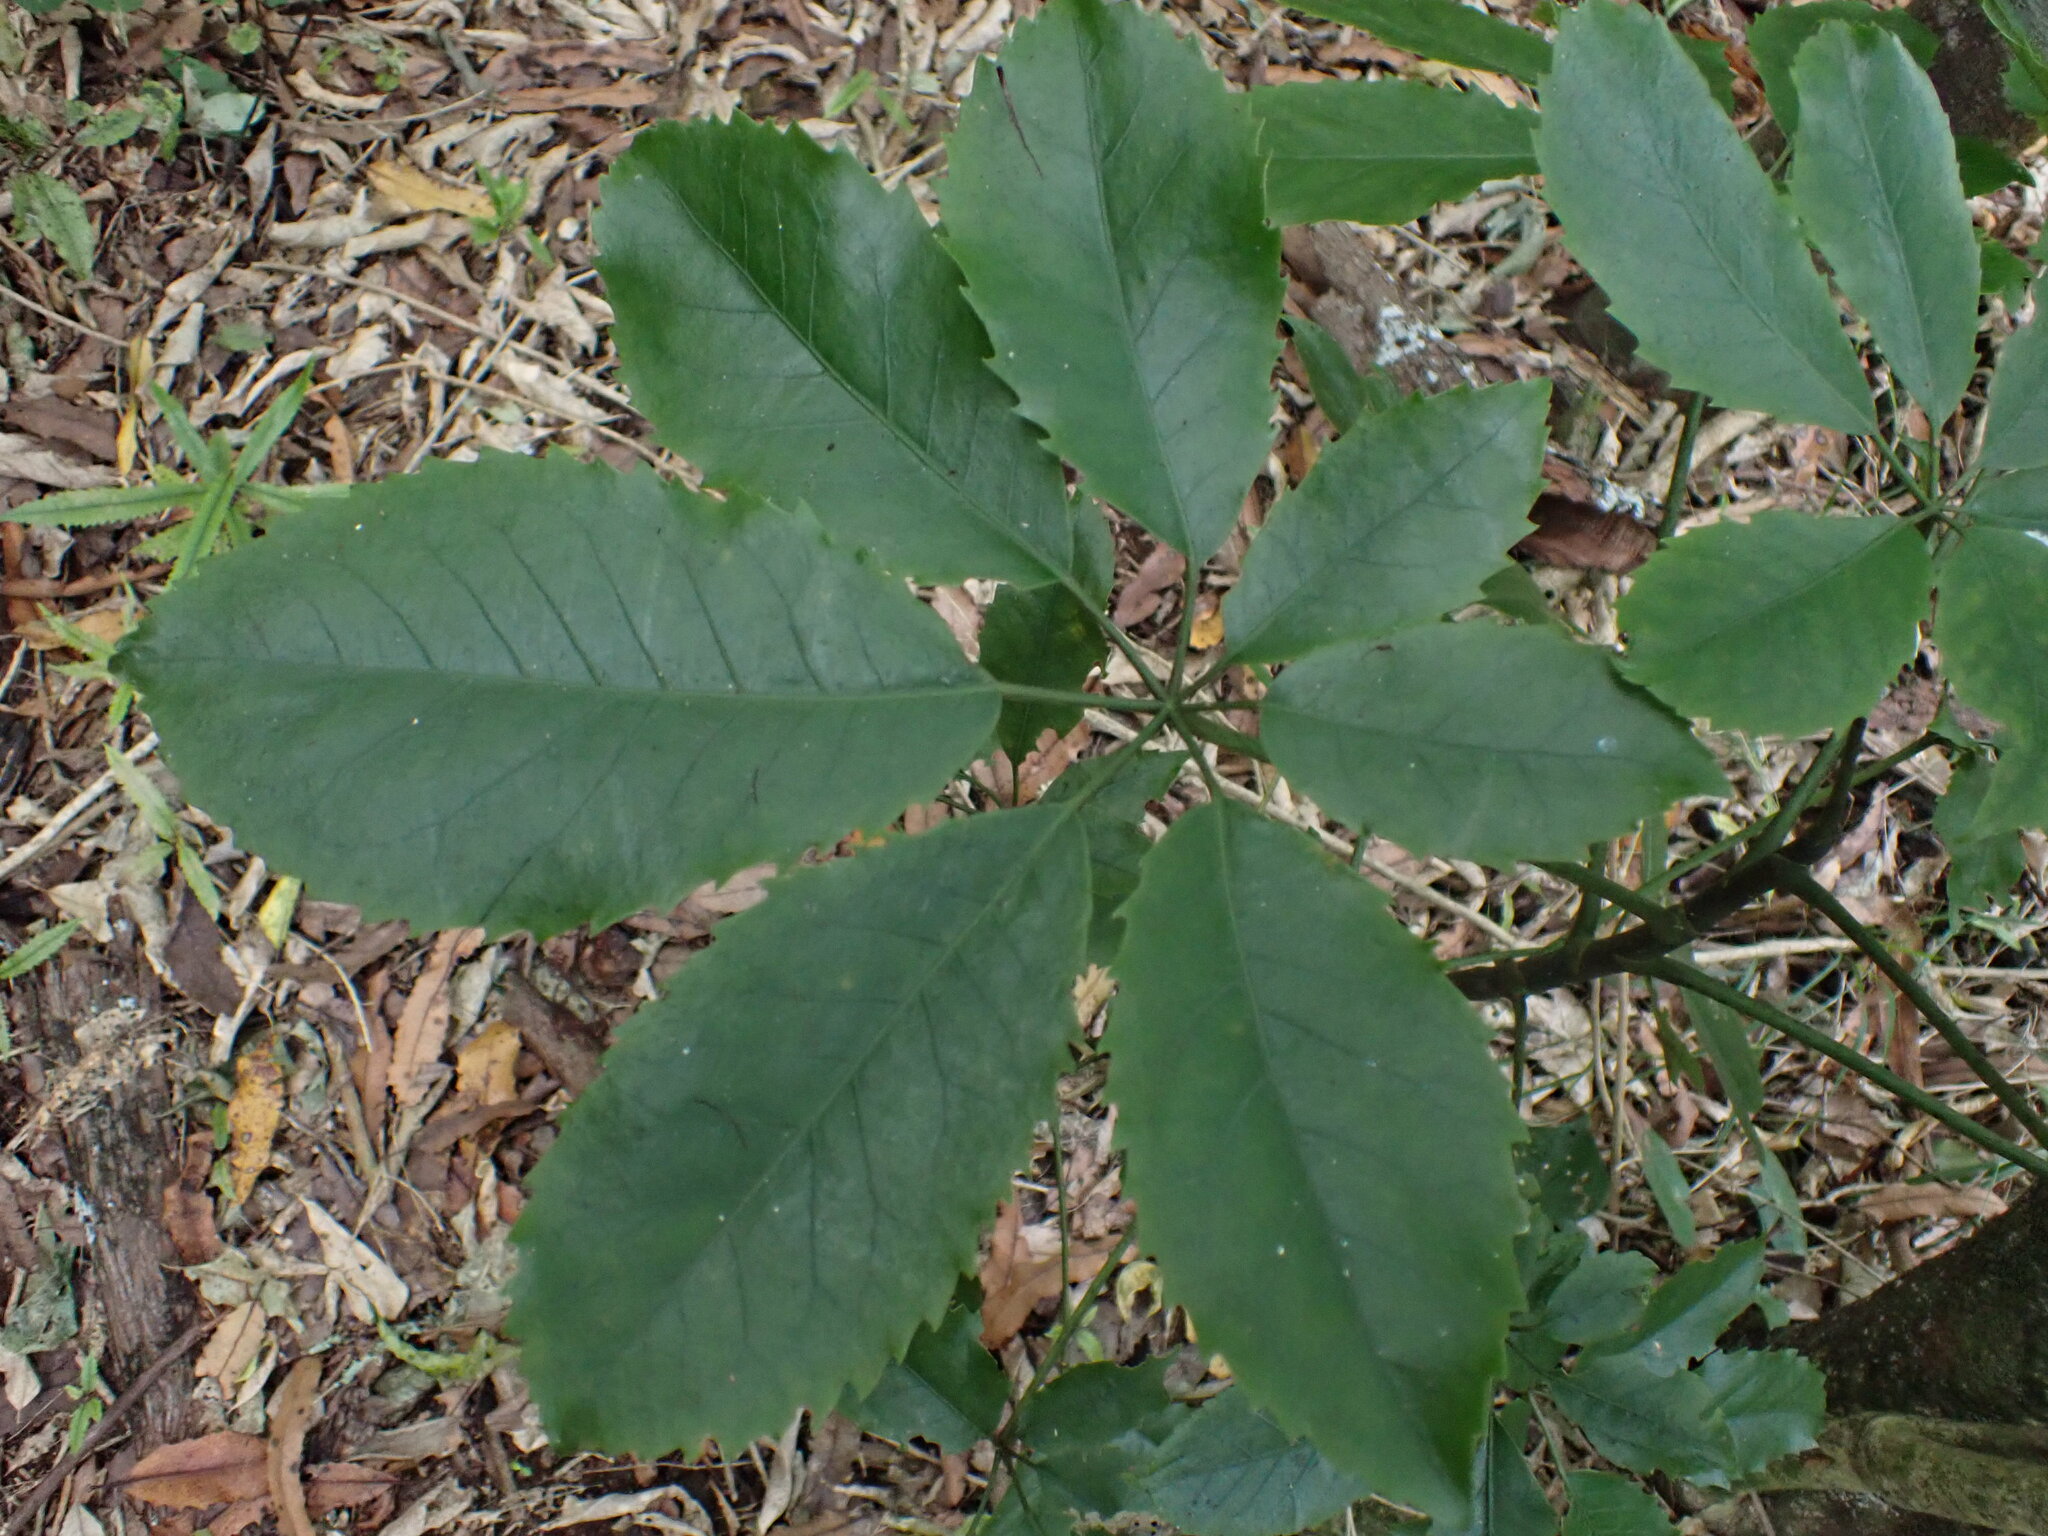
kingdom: Plantae
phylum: Tracheophyta
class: Magnoliopsida
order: Apiales
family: Araliaceae
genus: Neopanax
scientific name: Neopanax arboreus
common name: Five-fingers
